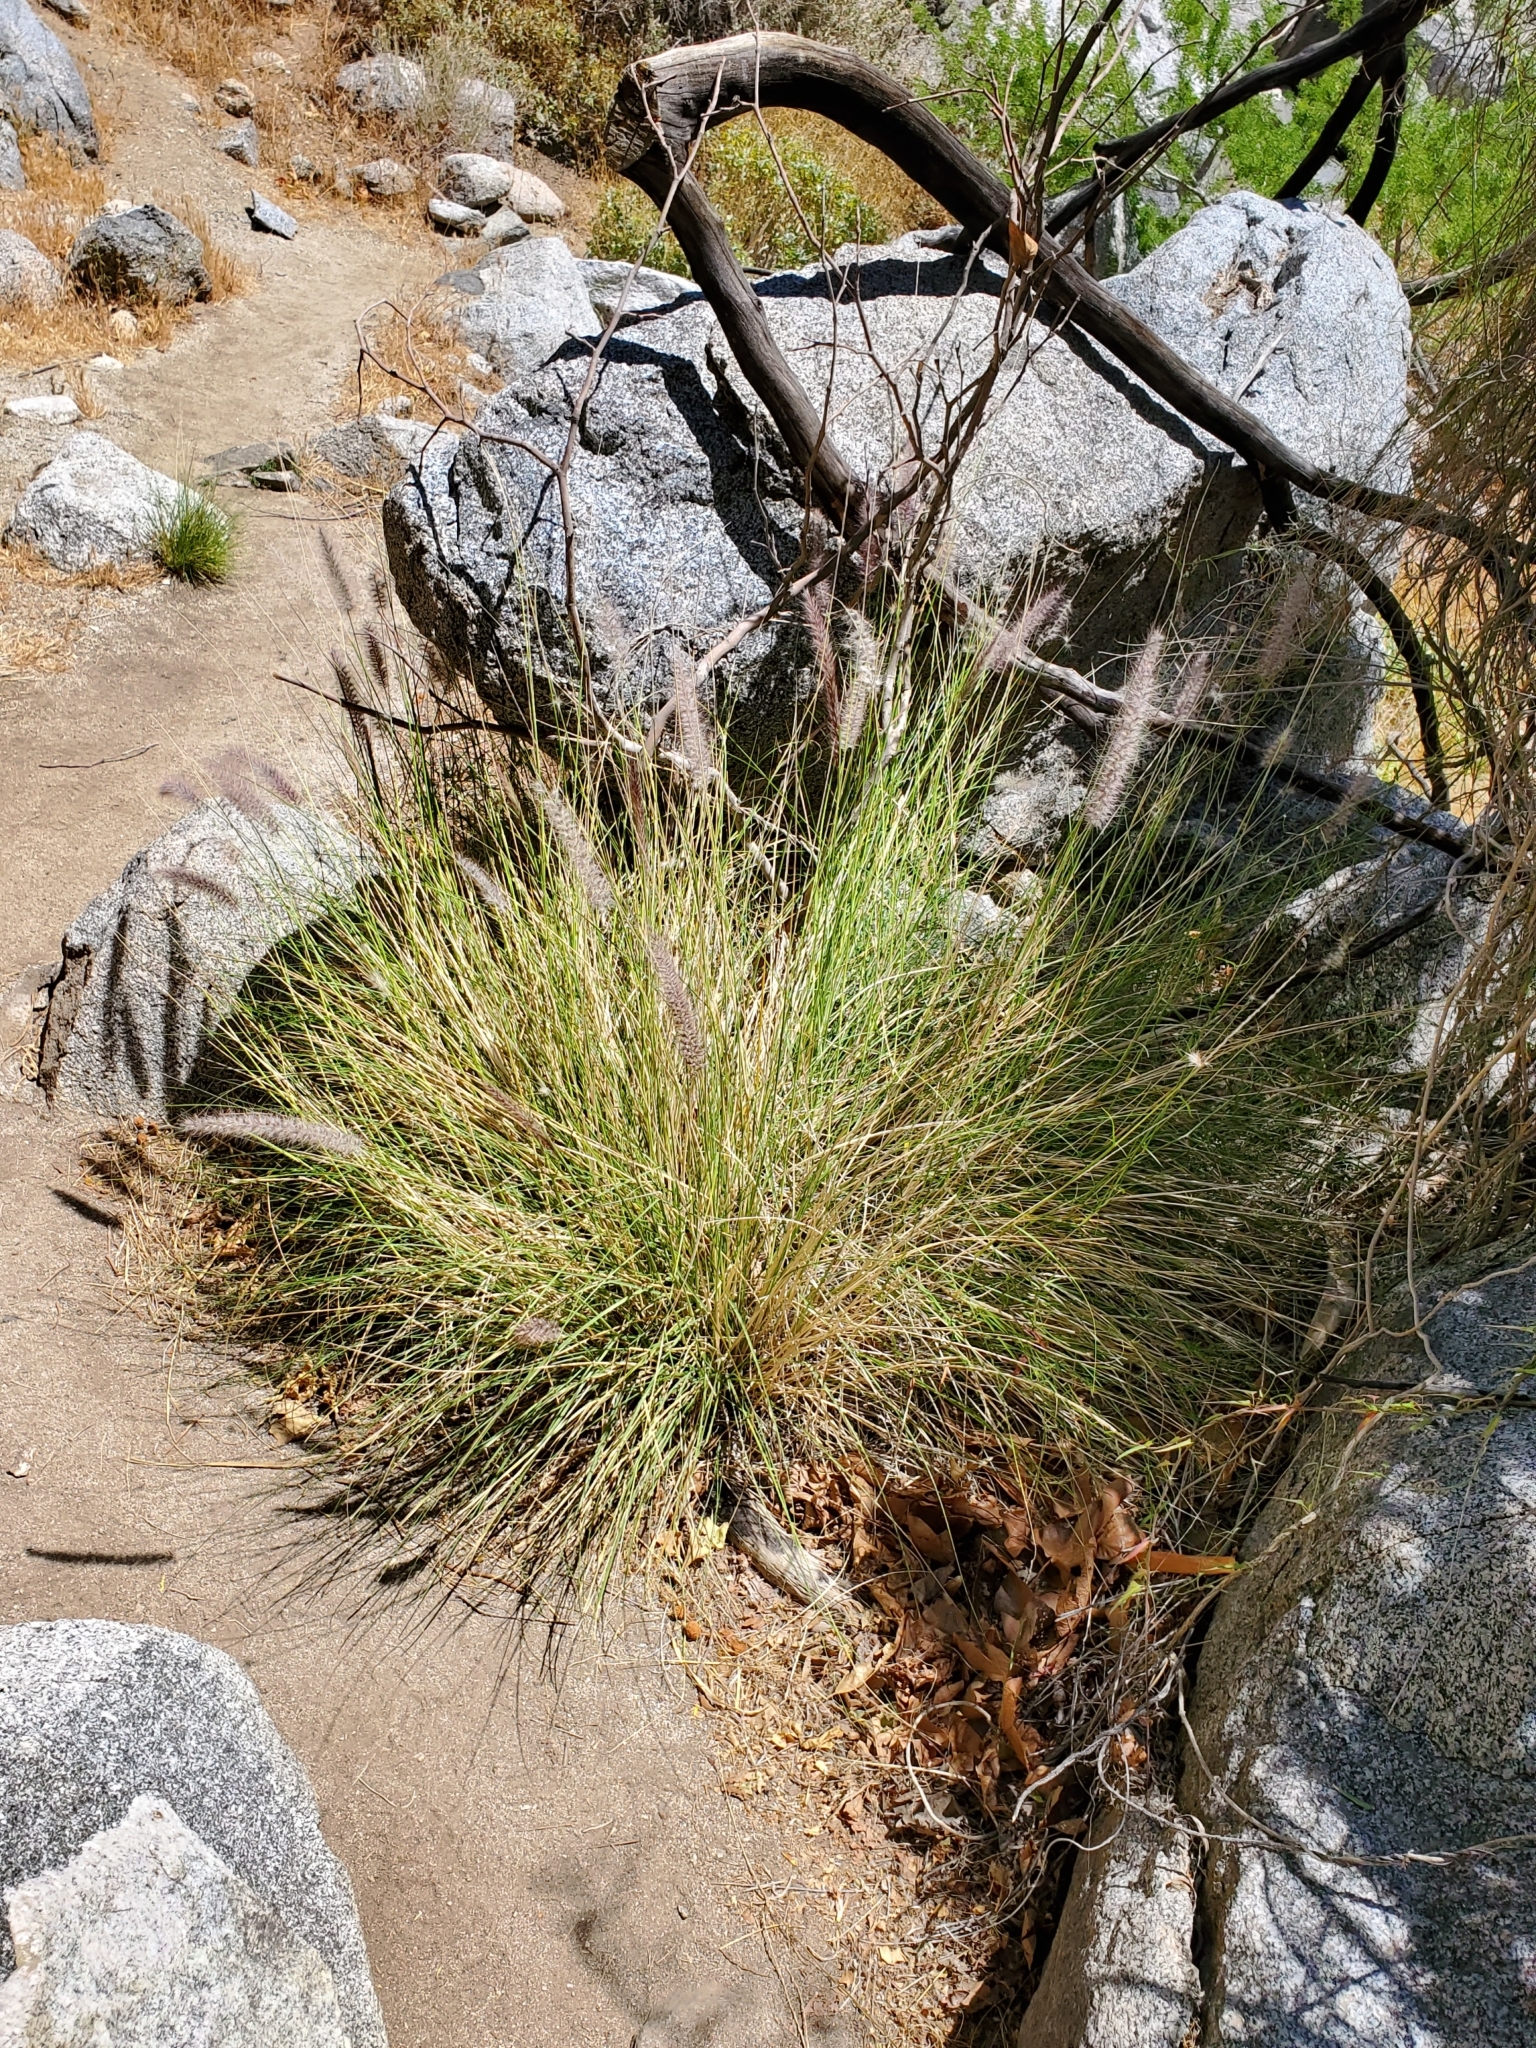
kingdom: Plantae
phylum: Tracheophyta
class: Liliopsida
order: Poales
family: Poaceae
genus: Cenchrus
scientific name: Cenchrus setaceus
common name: Crimson fountaingrass
